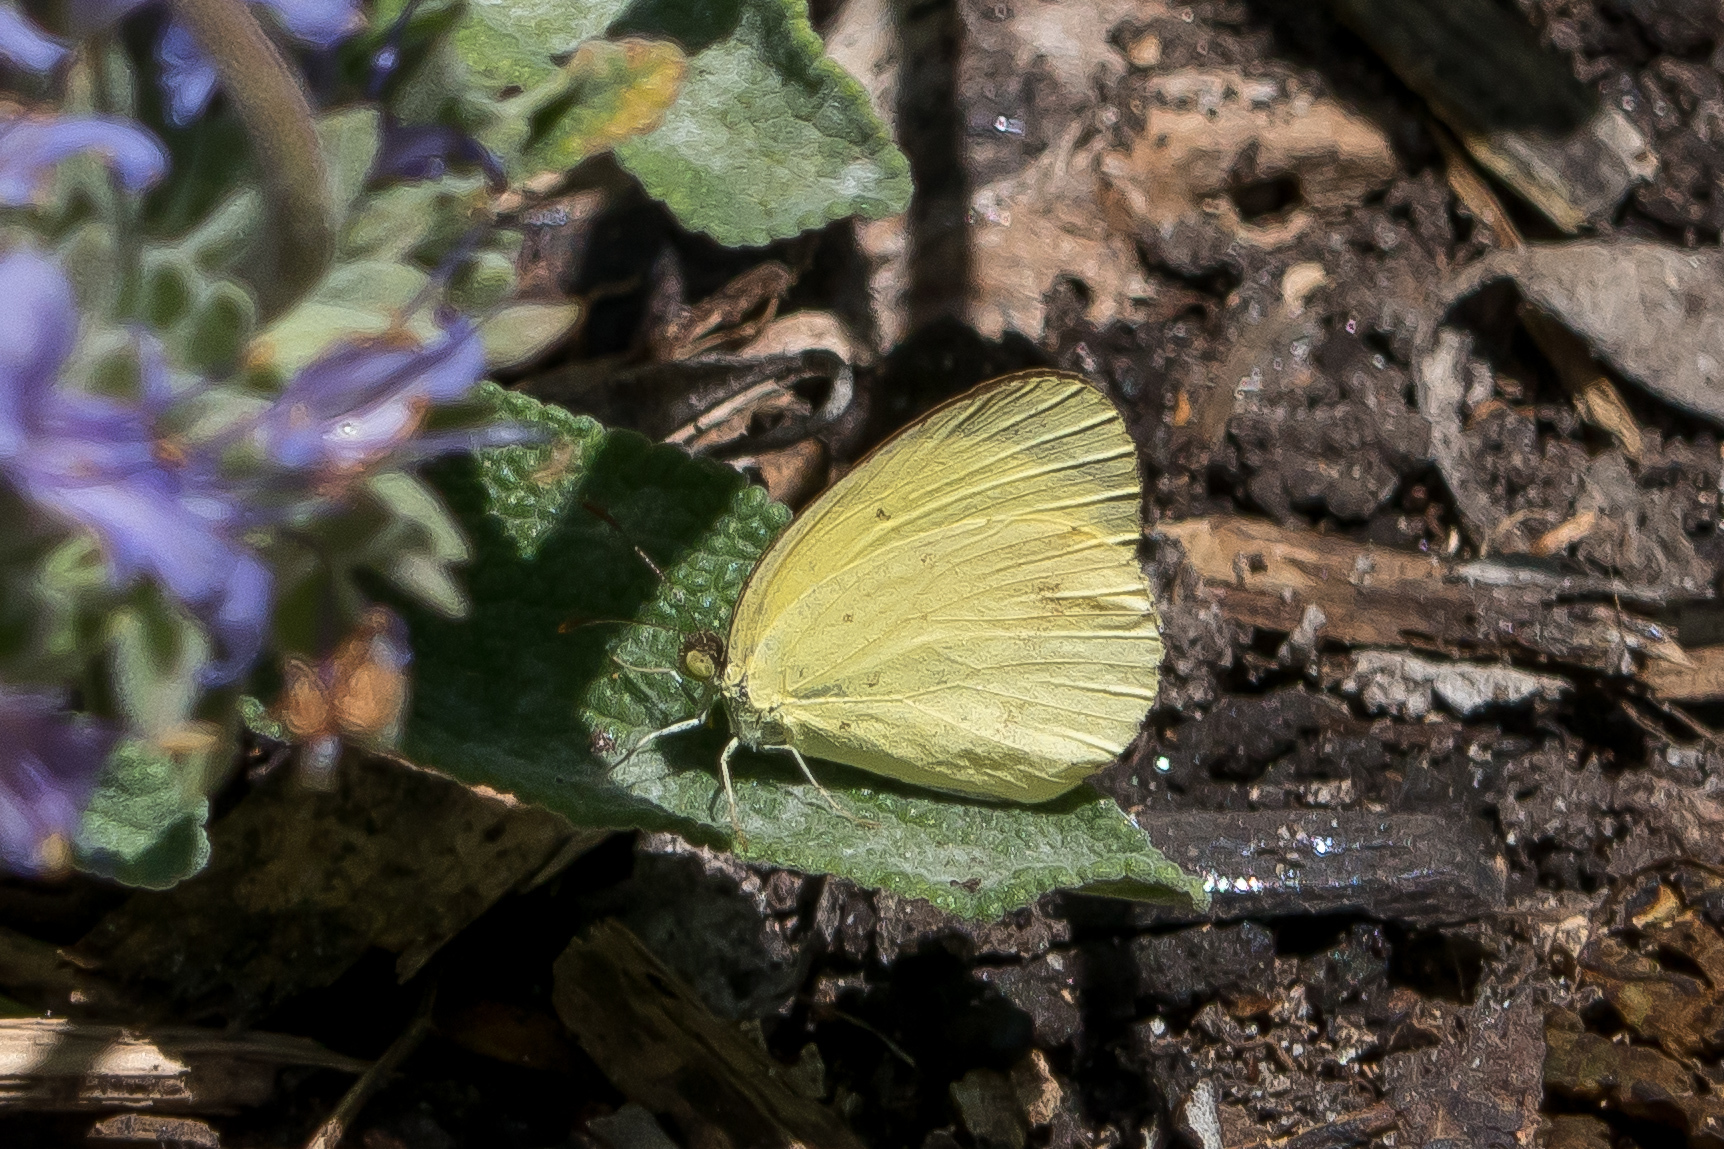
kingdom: Animalia
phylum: Arthropoda
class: Insecta
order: Lepidoptera
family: Pieridae
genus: Eurema
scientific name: Eurema smilax
